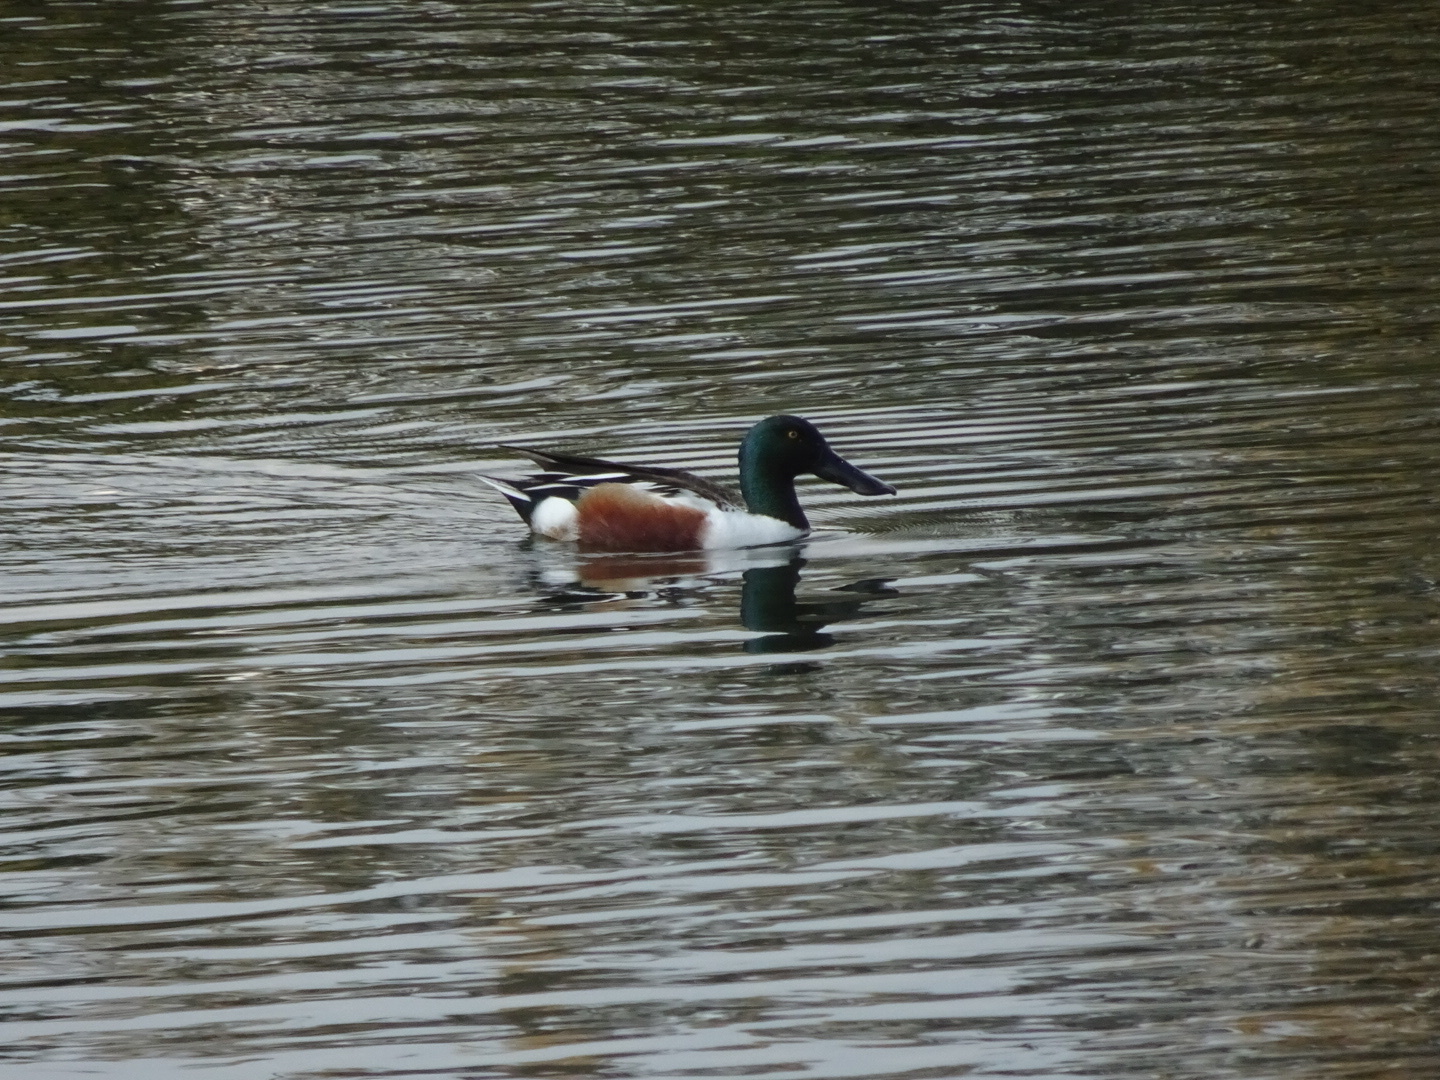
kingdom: Animalia
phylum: Chordata
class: Aves
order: Anseriformes
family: Anatidae
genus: Spatula
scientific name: Spatula clypeata
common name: Northern shoveler
